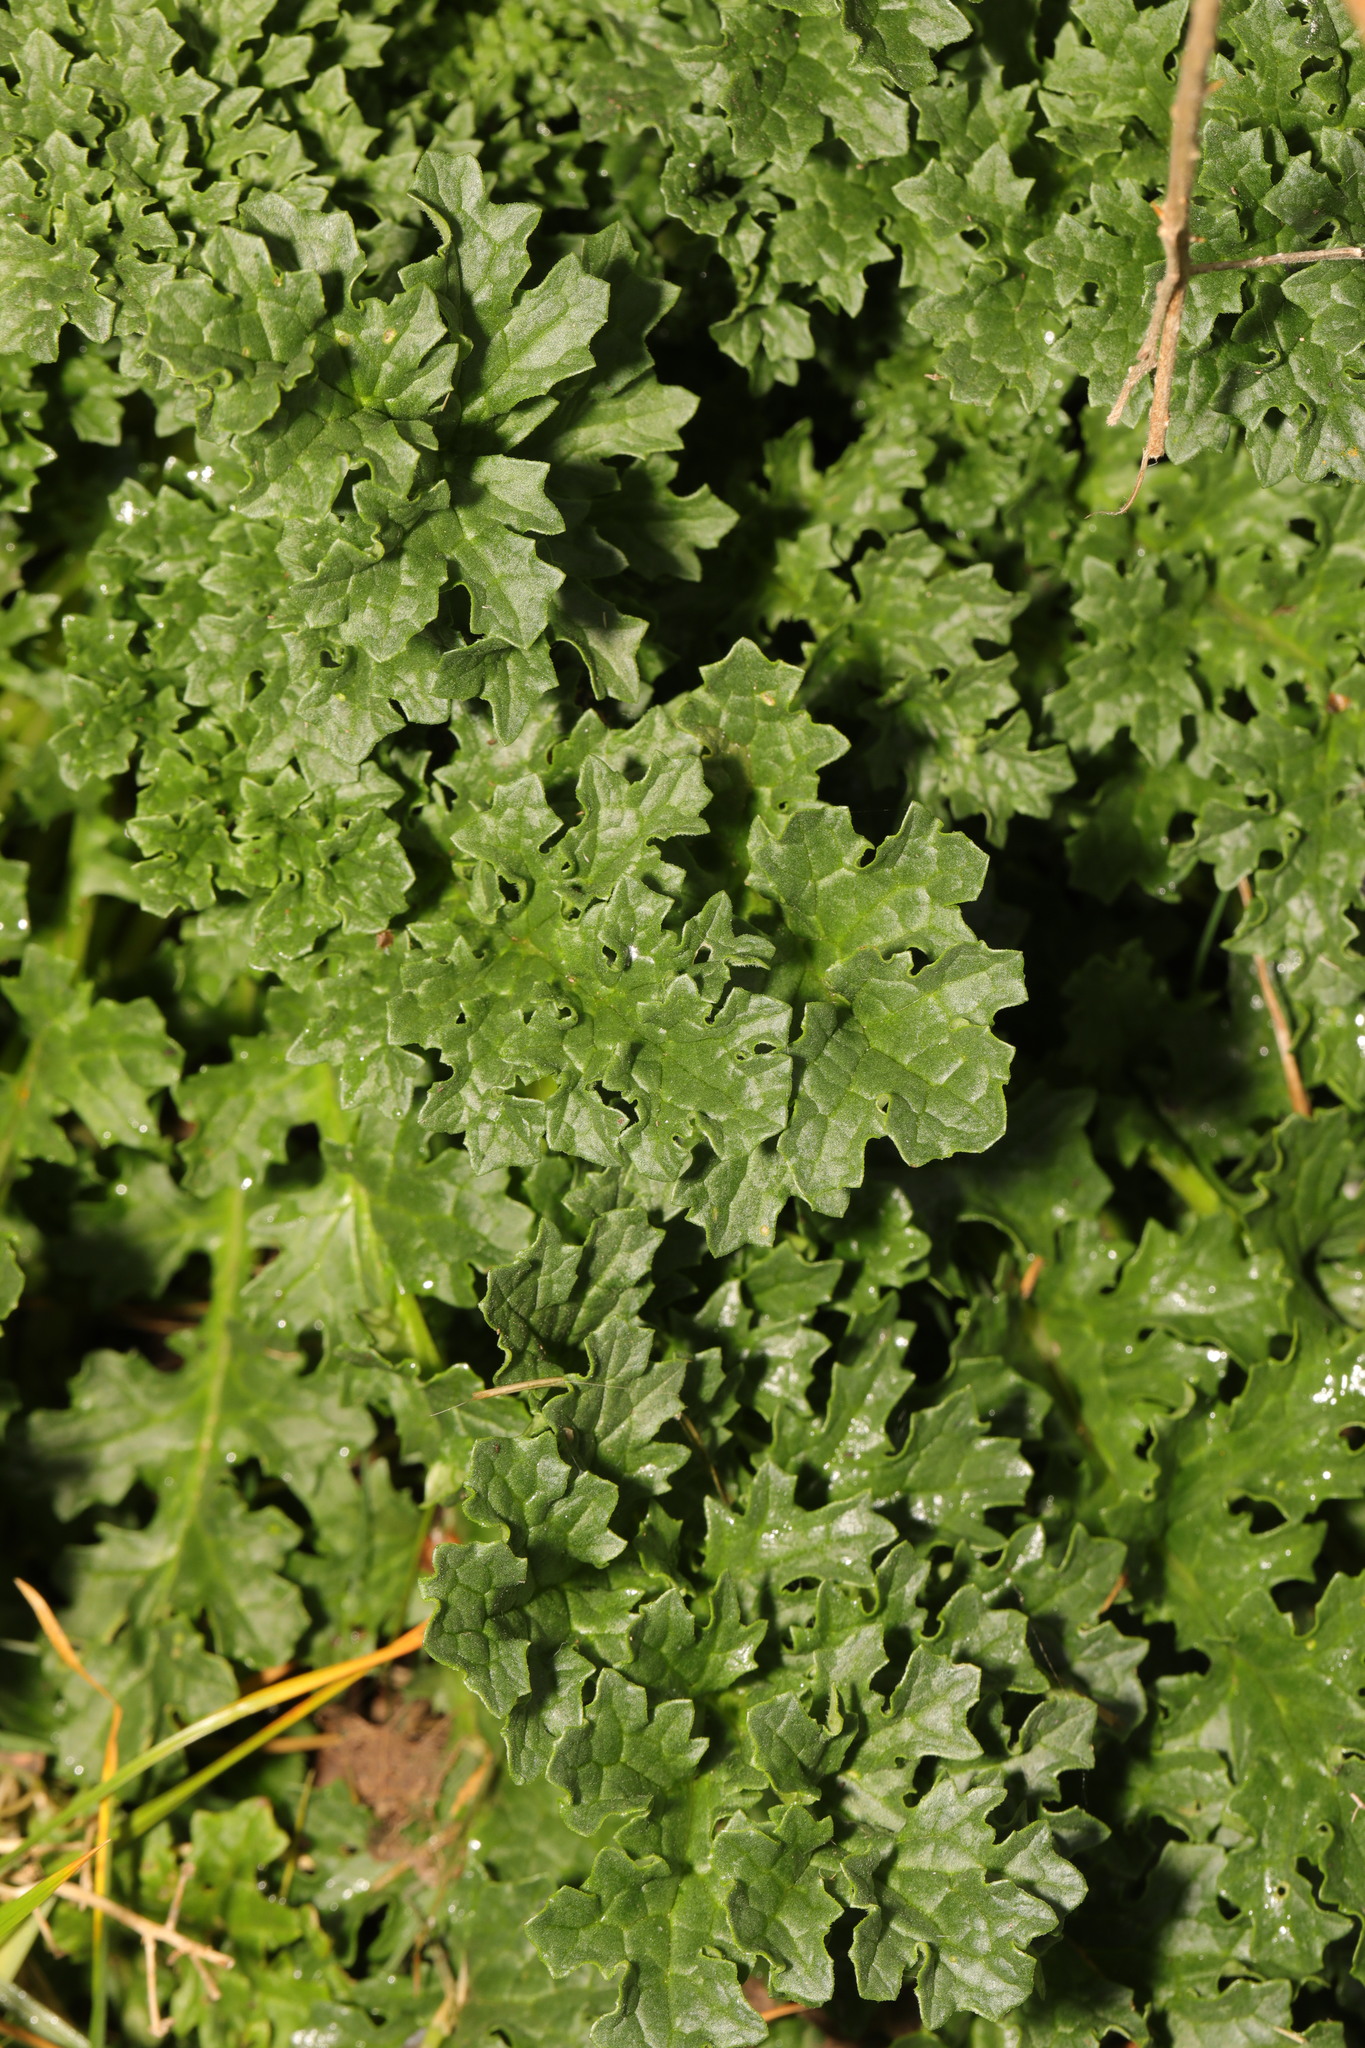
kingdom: Plantae
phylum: Tracheophyta
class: Magnoliopsida
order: Asterales
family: Asteraceae
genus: Jacobaea
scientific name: Jacobaea vulgaris
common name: Stinking willie
